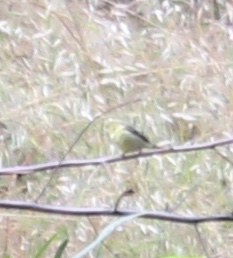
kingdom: Animalia
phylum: Chordata
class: Aves
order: Passeriformes
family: Fringillidae
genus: Spinus
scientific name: Spinus psaltria
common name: Lesser goldfinch
